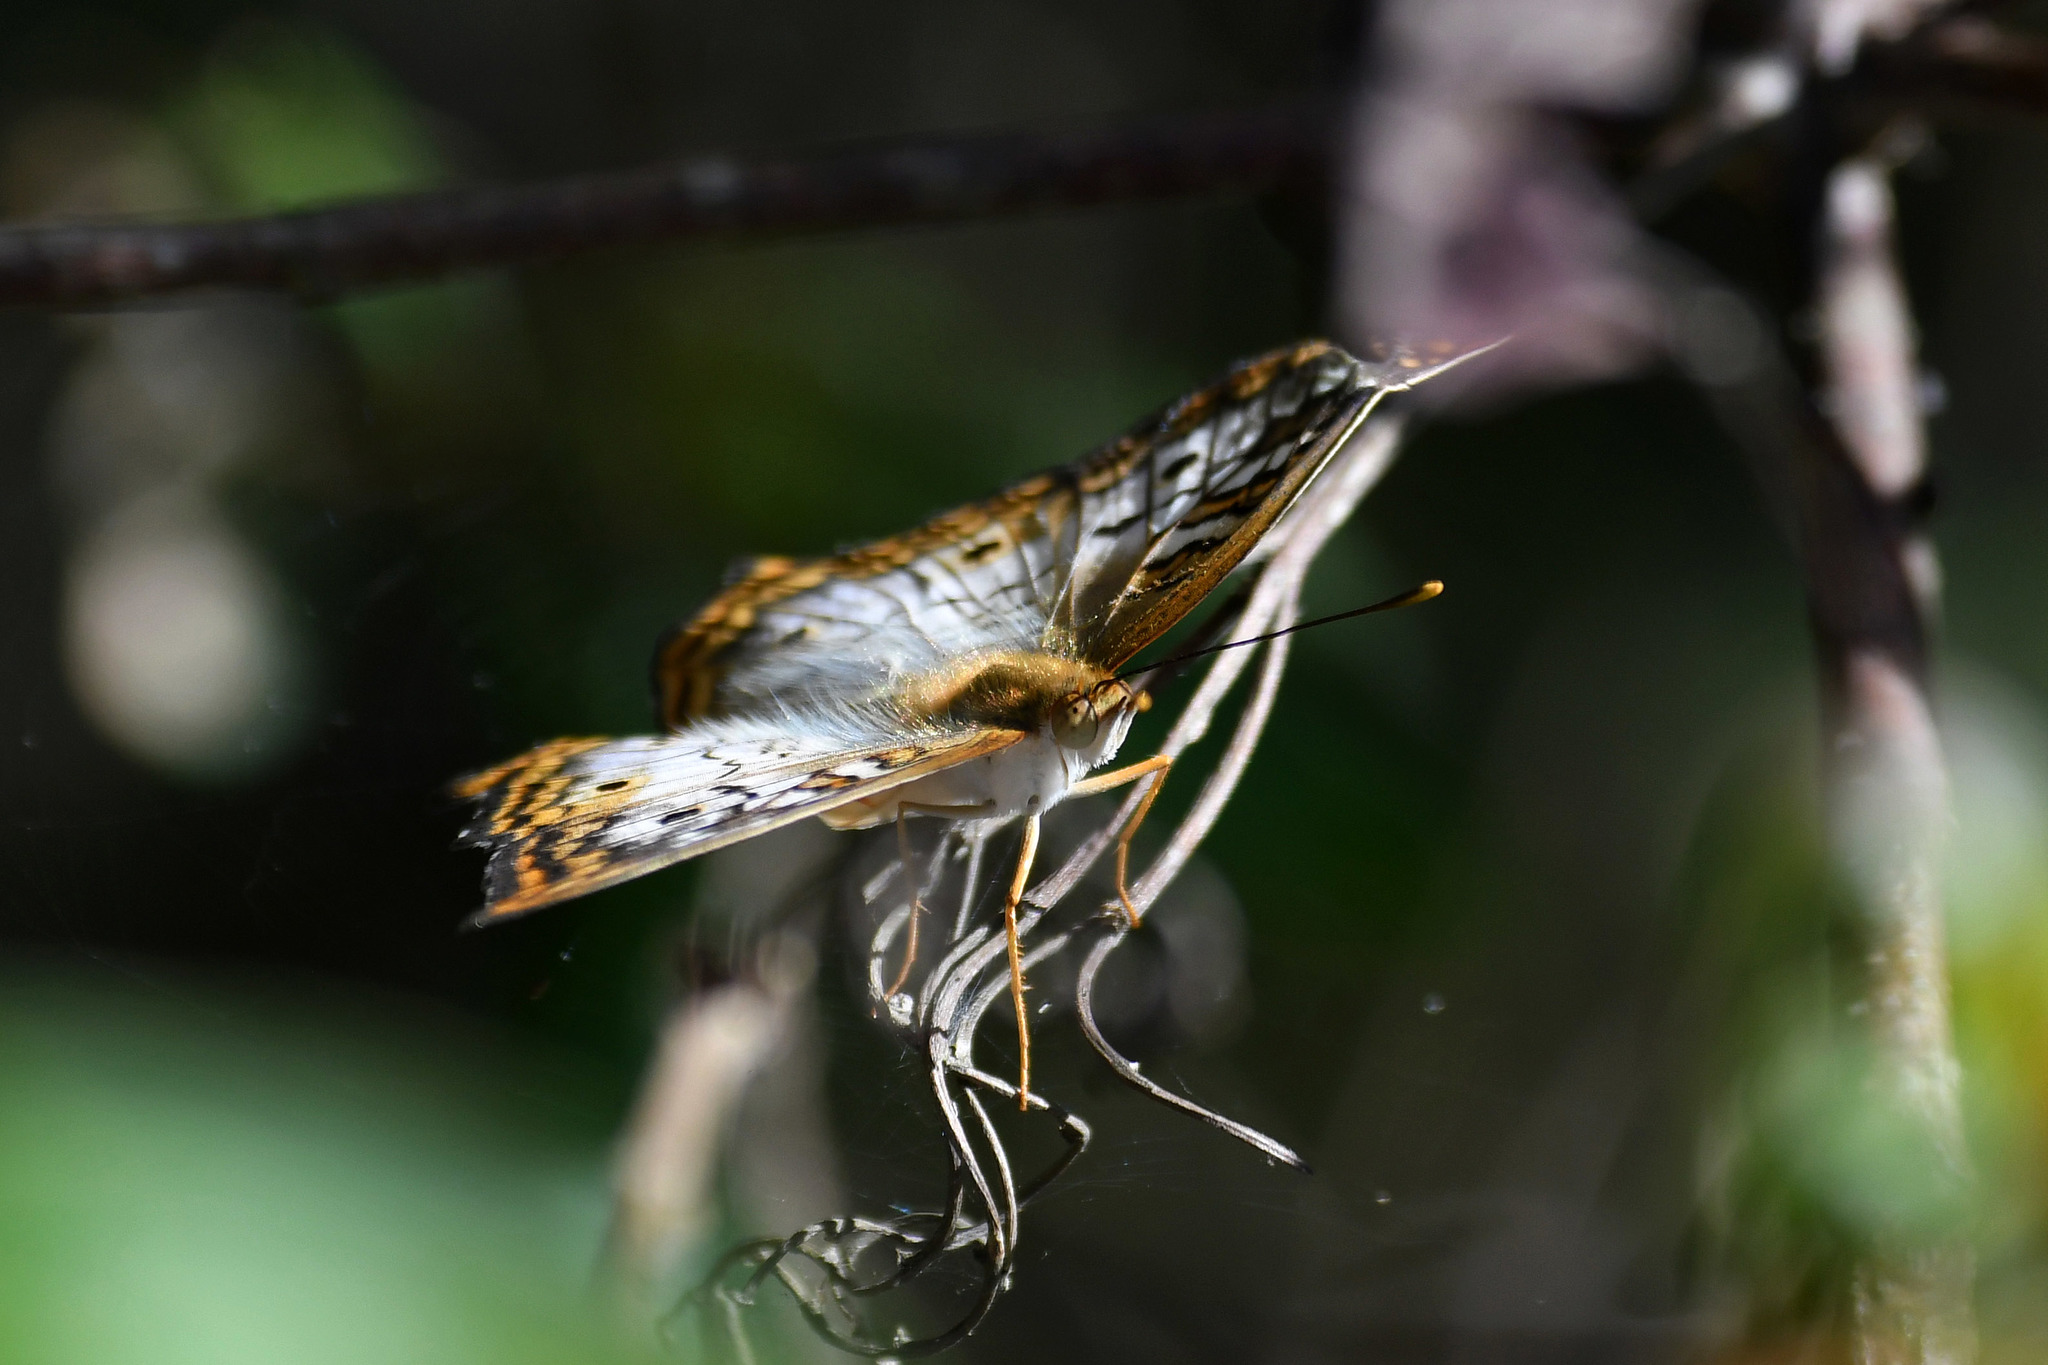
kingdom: Animalia
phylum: Arthropoda
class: Insecta
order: Lepidoptera
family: Nymphalidae
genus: Anartia
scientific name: Anartia jatrophae
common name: White peacock
